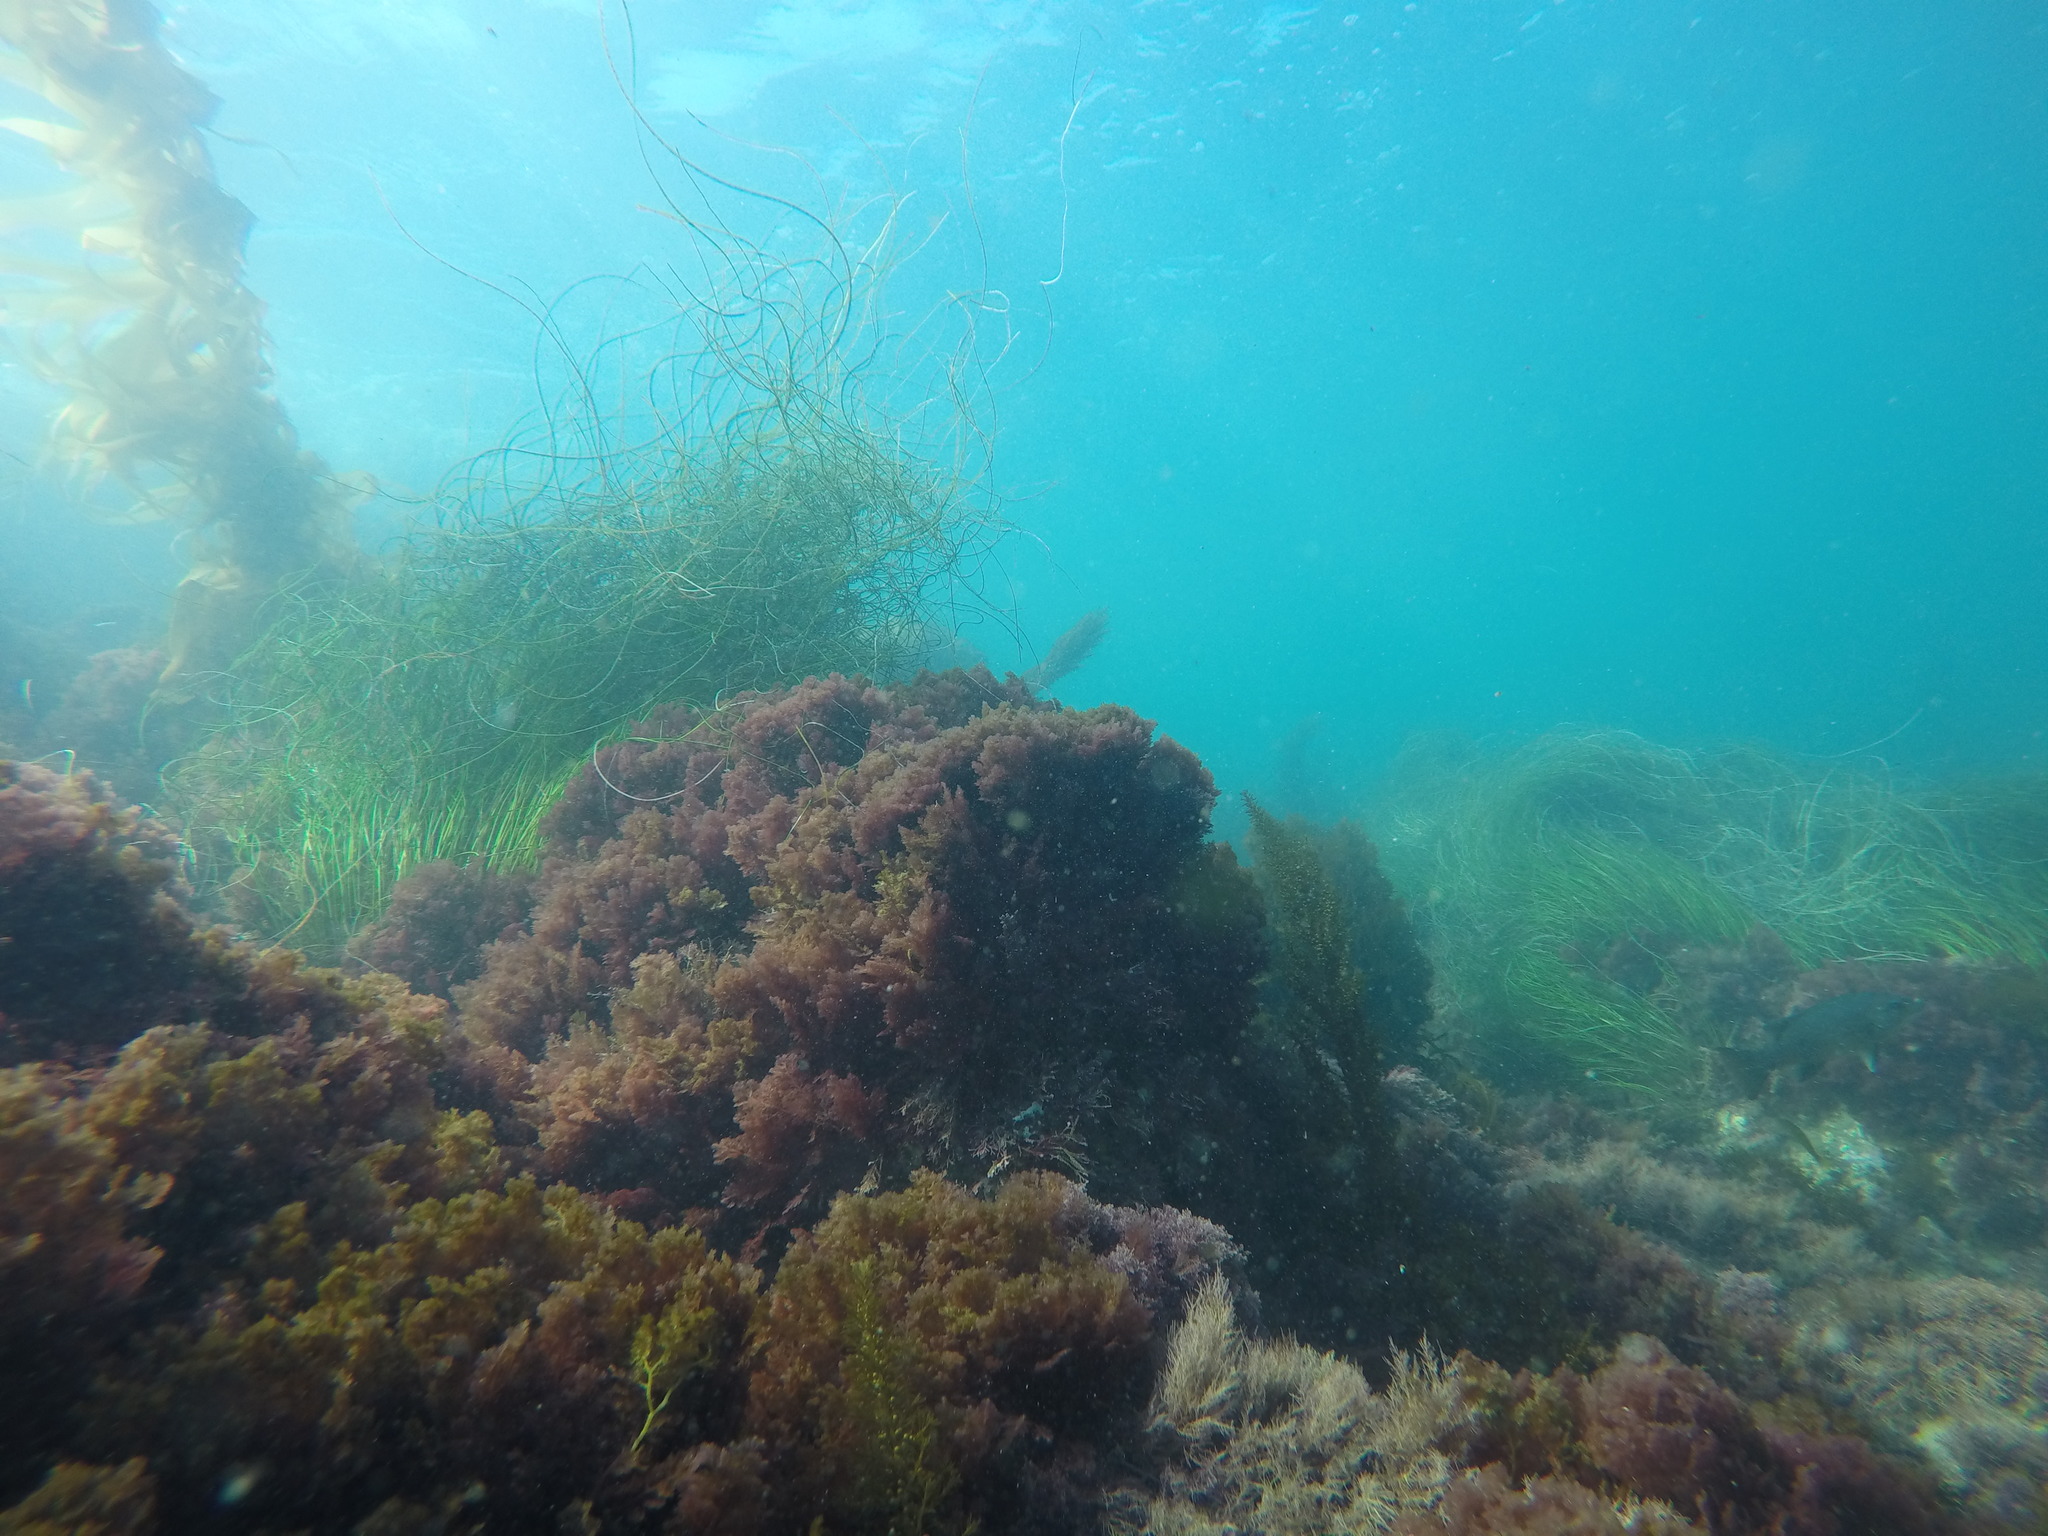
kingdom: Plantae
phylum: Rhodophyta
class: Florideophyceae
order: Bonnemaisoniales
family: Bonnemaisoniaceae
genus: Asparagopsis
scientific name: Asparagopsis taxiformis
